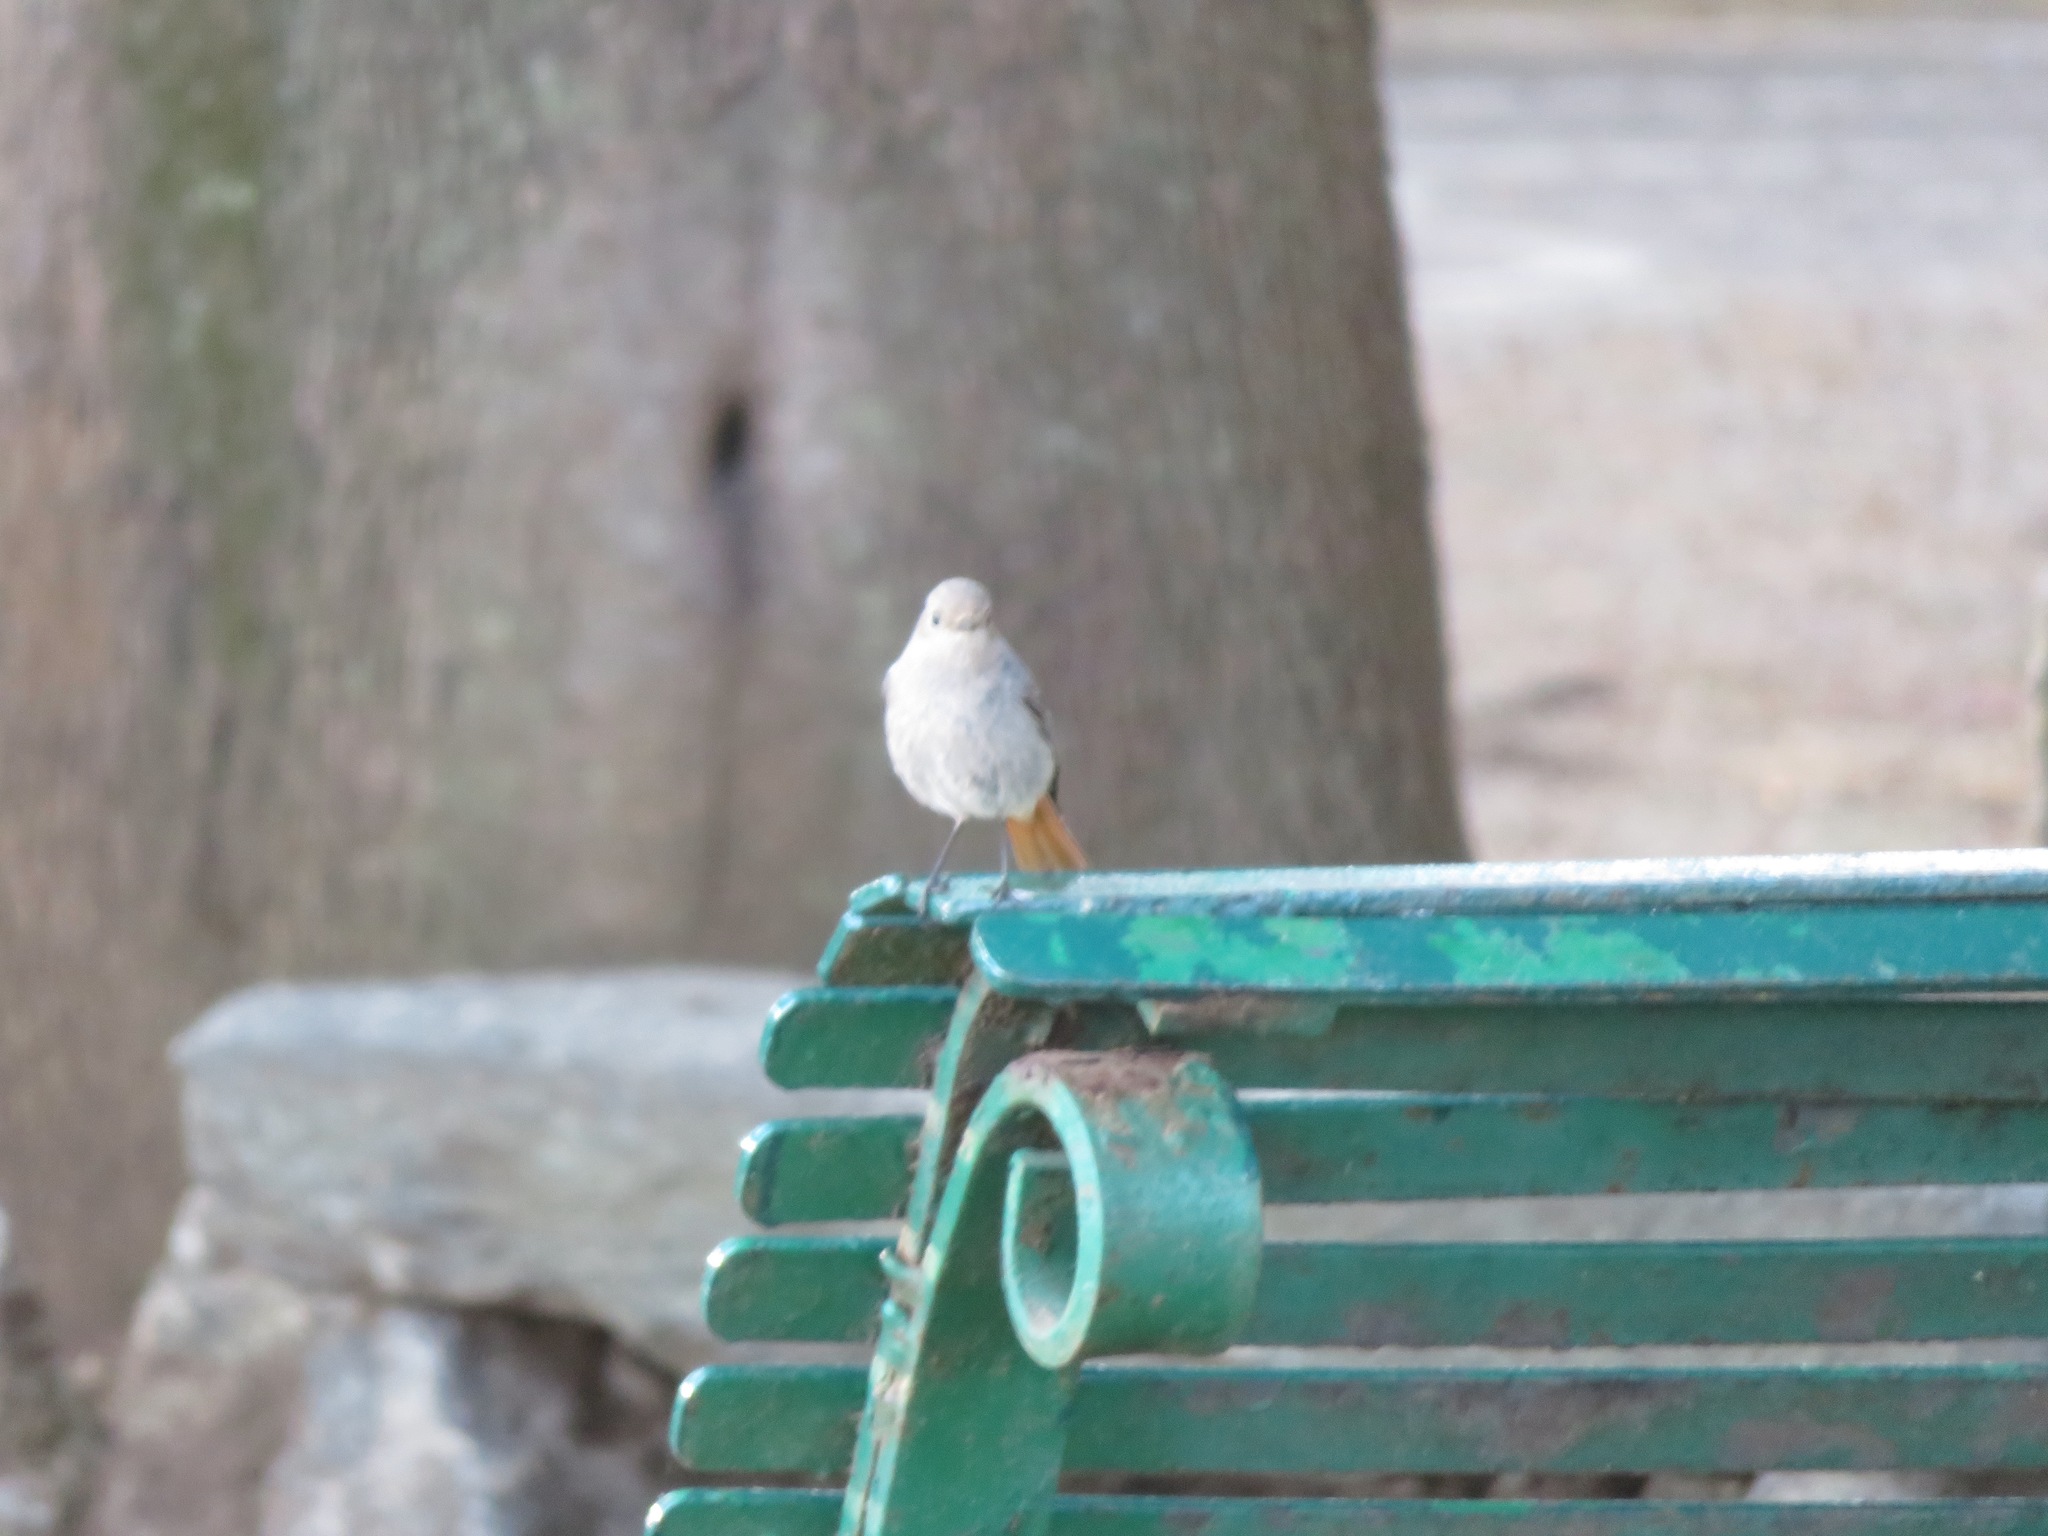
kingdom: Animalia
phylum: Chordata
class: Aves
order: Passeriformes
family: Muscicapidae
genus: Phoenicurus
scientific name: Phoenicurus ochruros
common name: Black redstart
